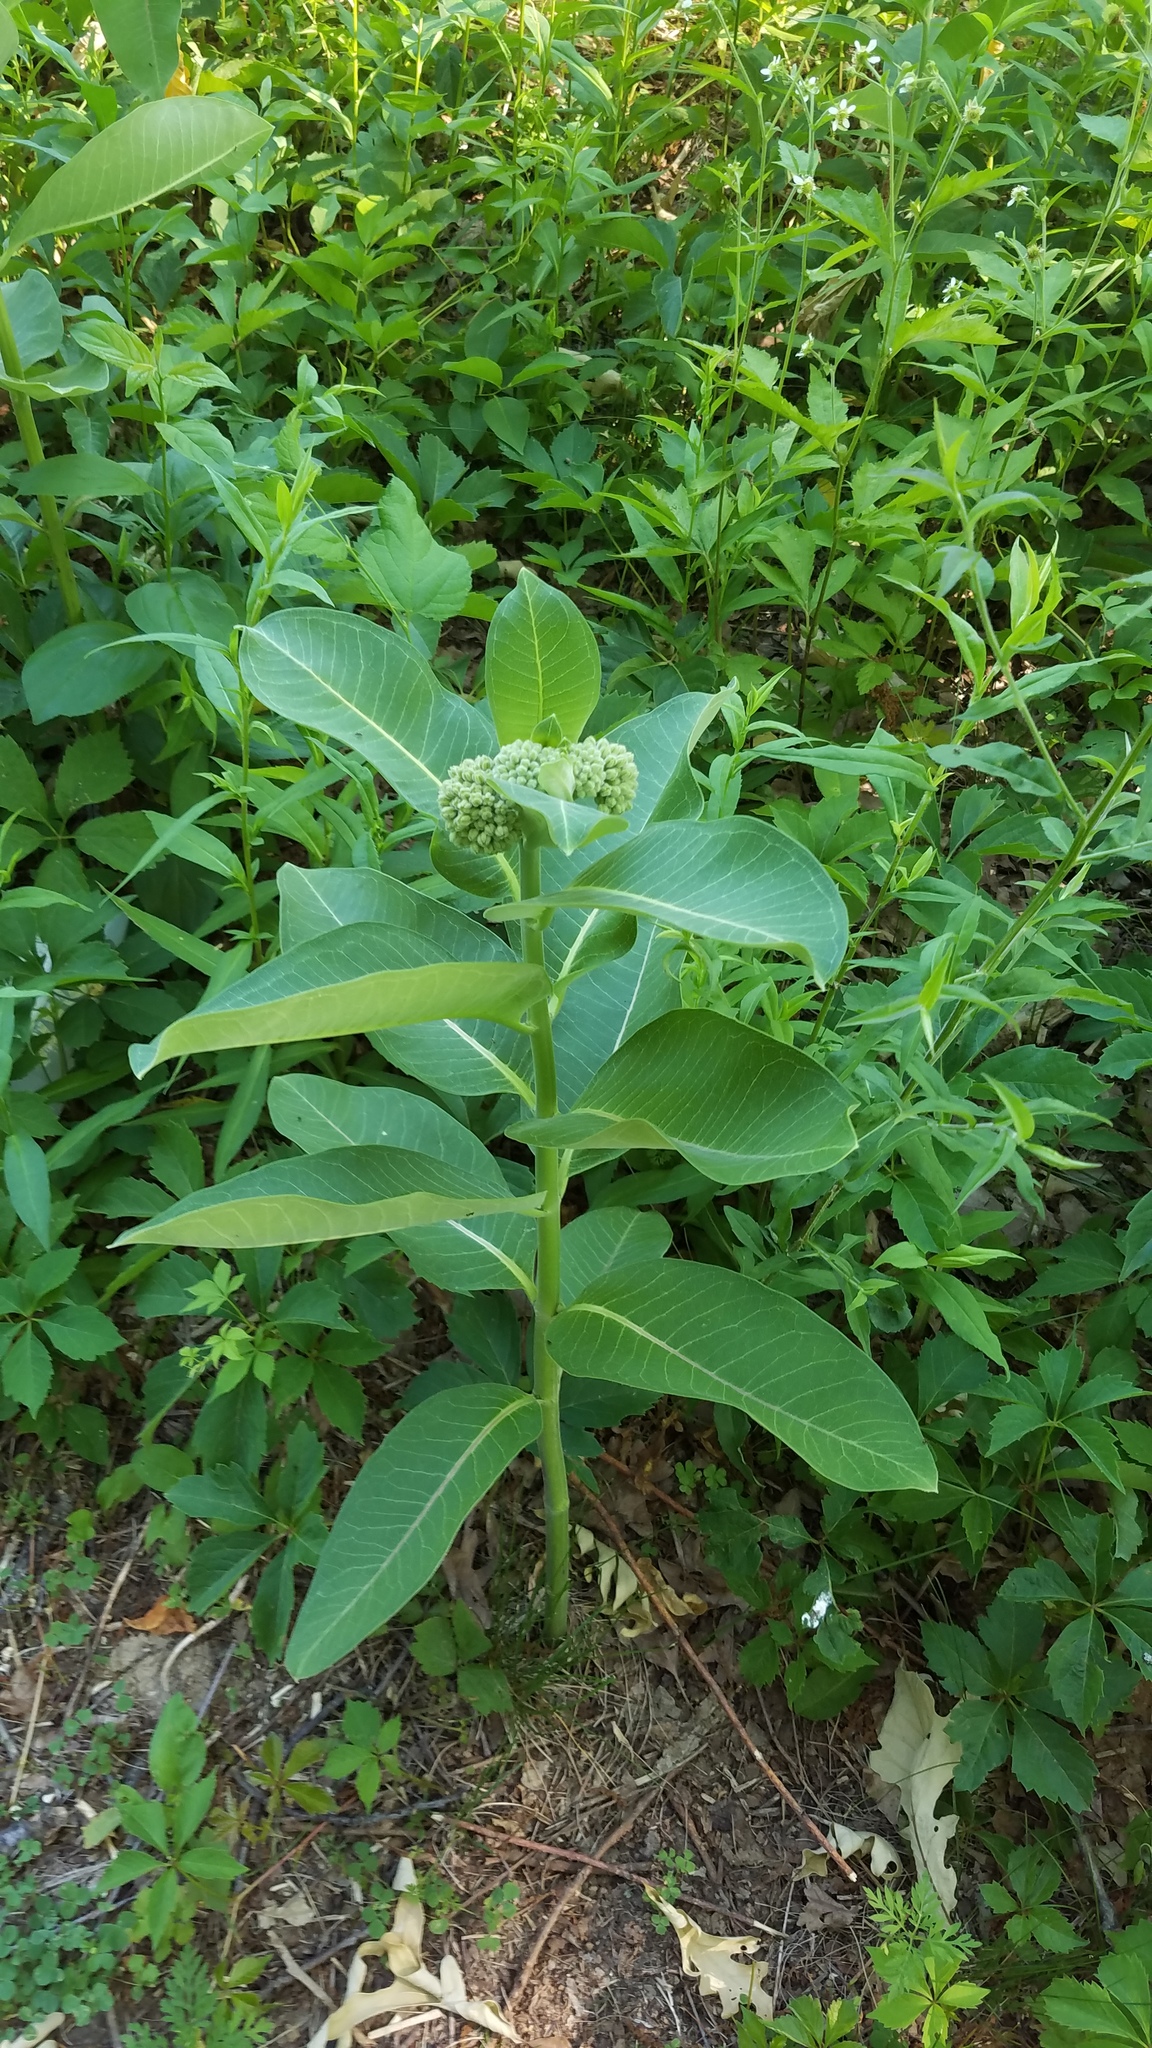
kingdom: Plantae
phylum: Tracheophyta
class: Magnoliopsida
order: Gentianales
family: Apocynaceae
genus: Asclepias
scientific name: Asclepias syriaca
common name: Common milkweed
